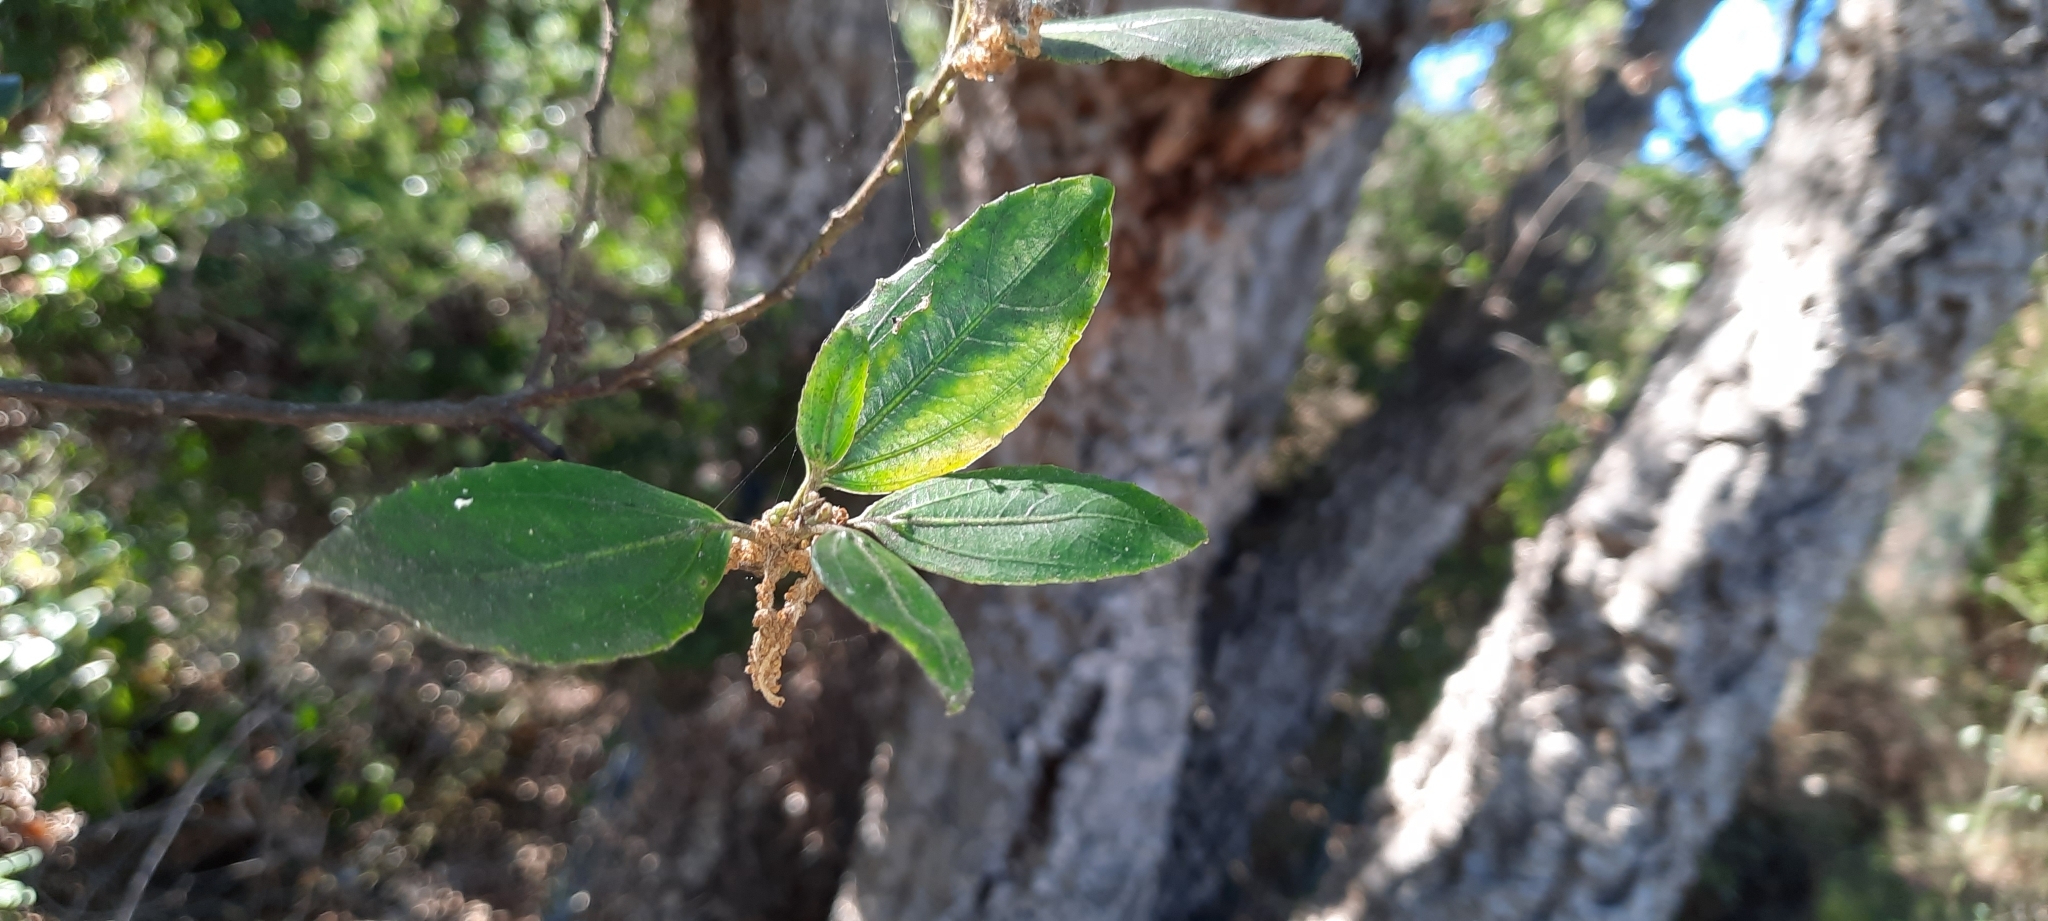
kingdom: Plantae
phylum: Tracheophyta
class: Magnoliopsida
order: Fagales
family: Fagaceae
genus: Quercus
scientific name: Quercus suber
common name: Cork oak
